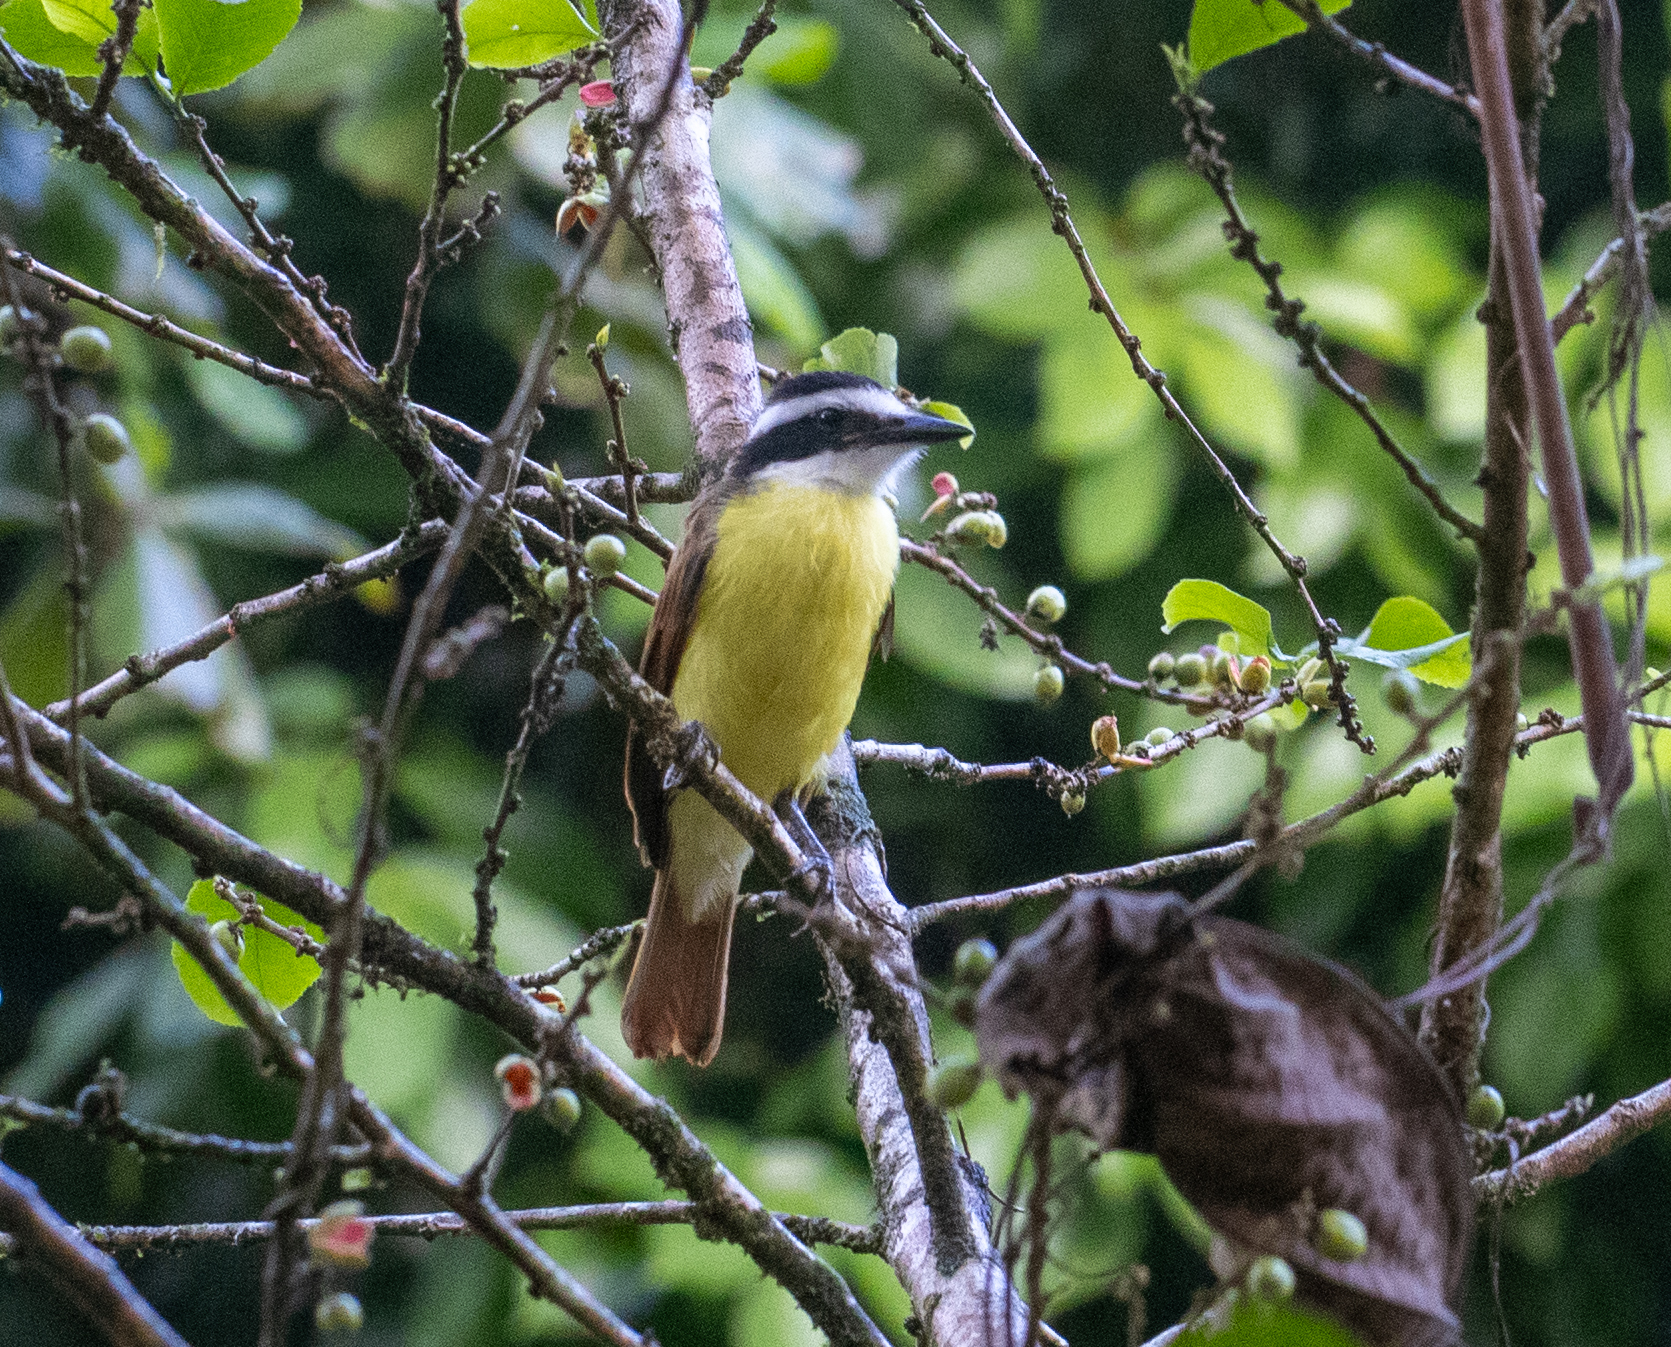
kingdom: Animalia
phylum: Chordata
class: Aves
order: Passeriformes
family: Tyrannidae
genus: Pitangus
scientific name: Pitangus sulphuratus
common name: Great kiskadee
